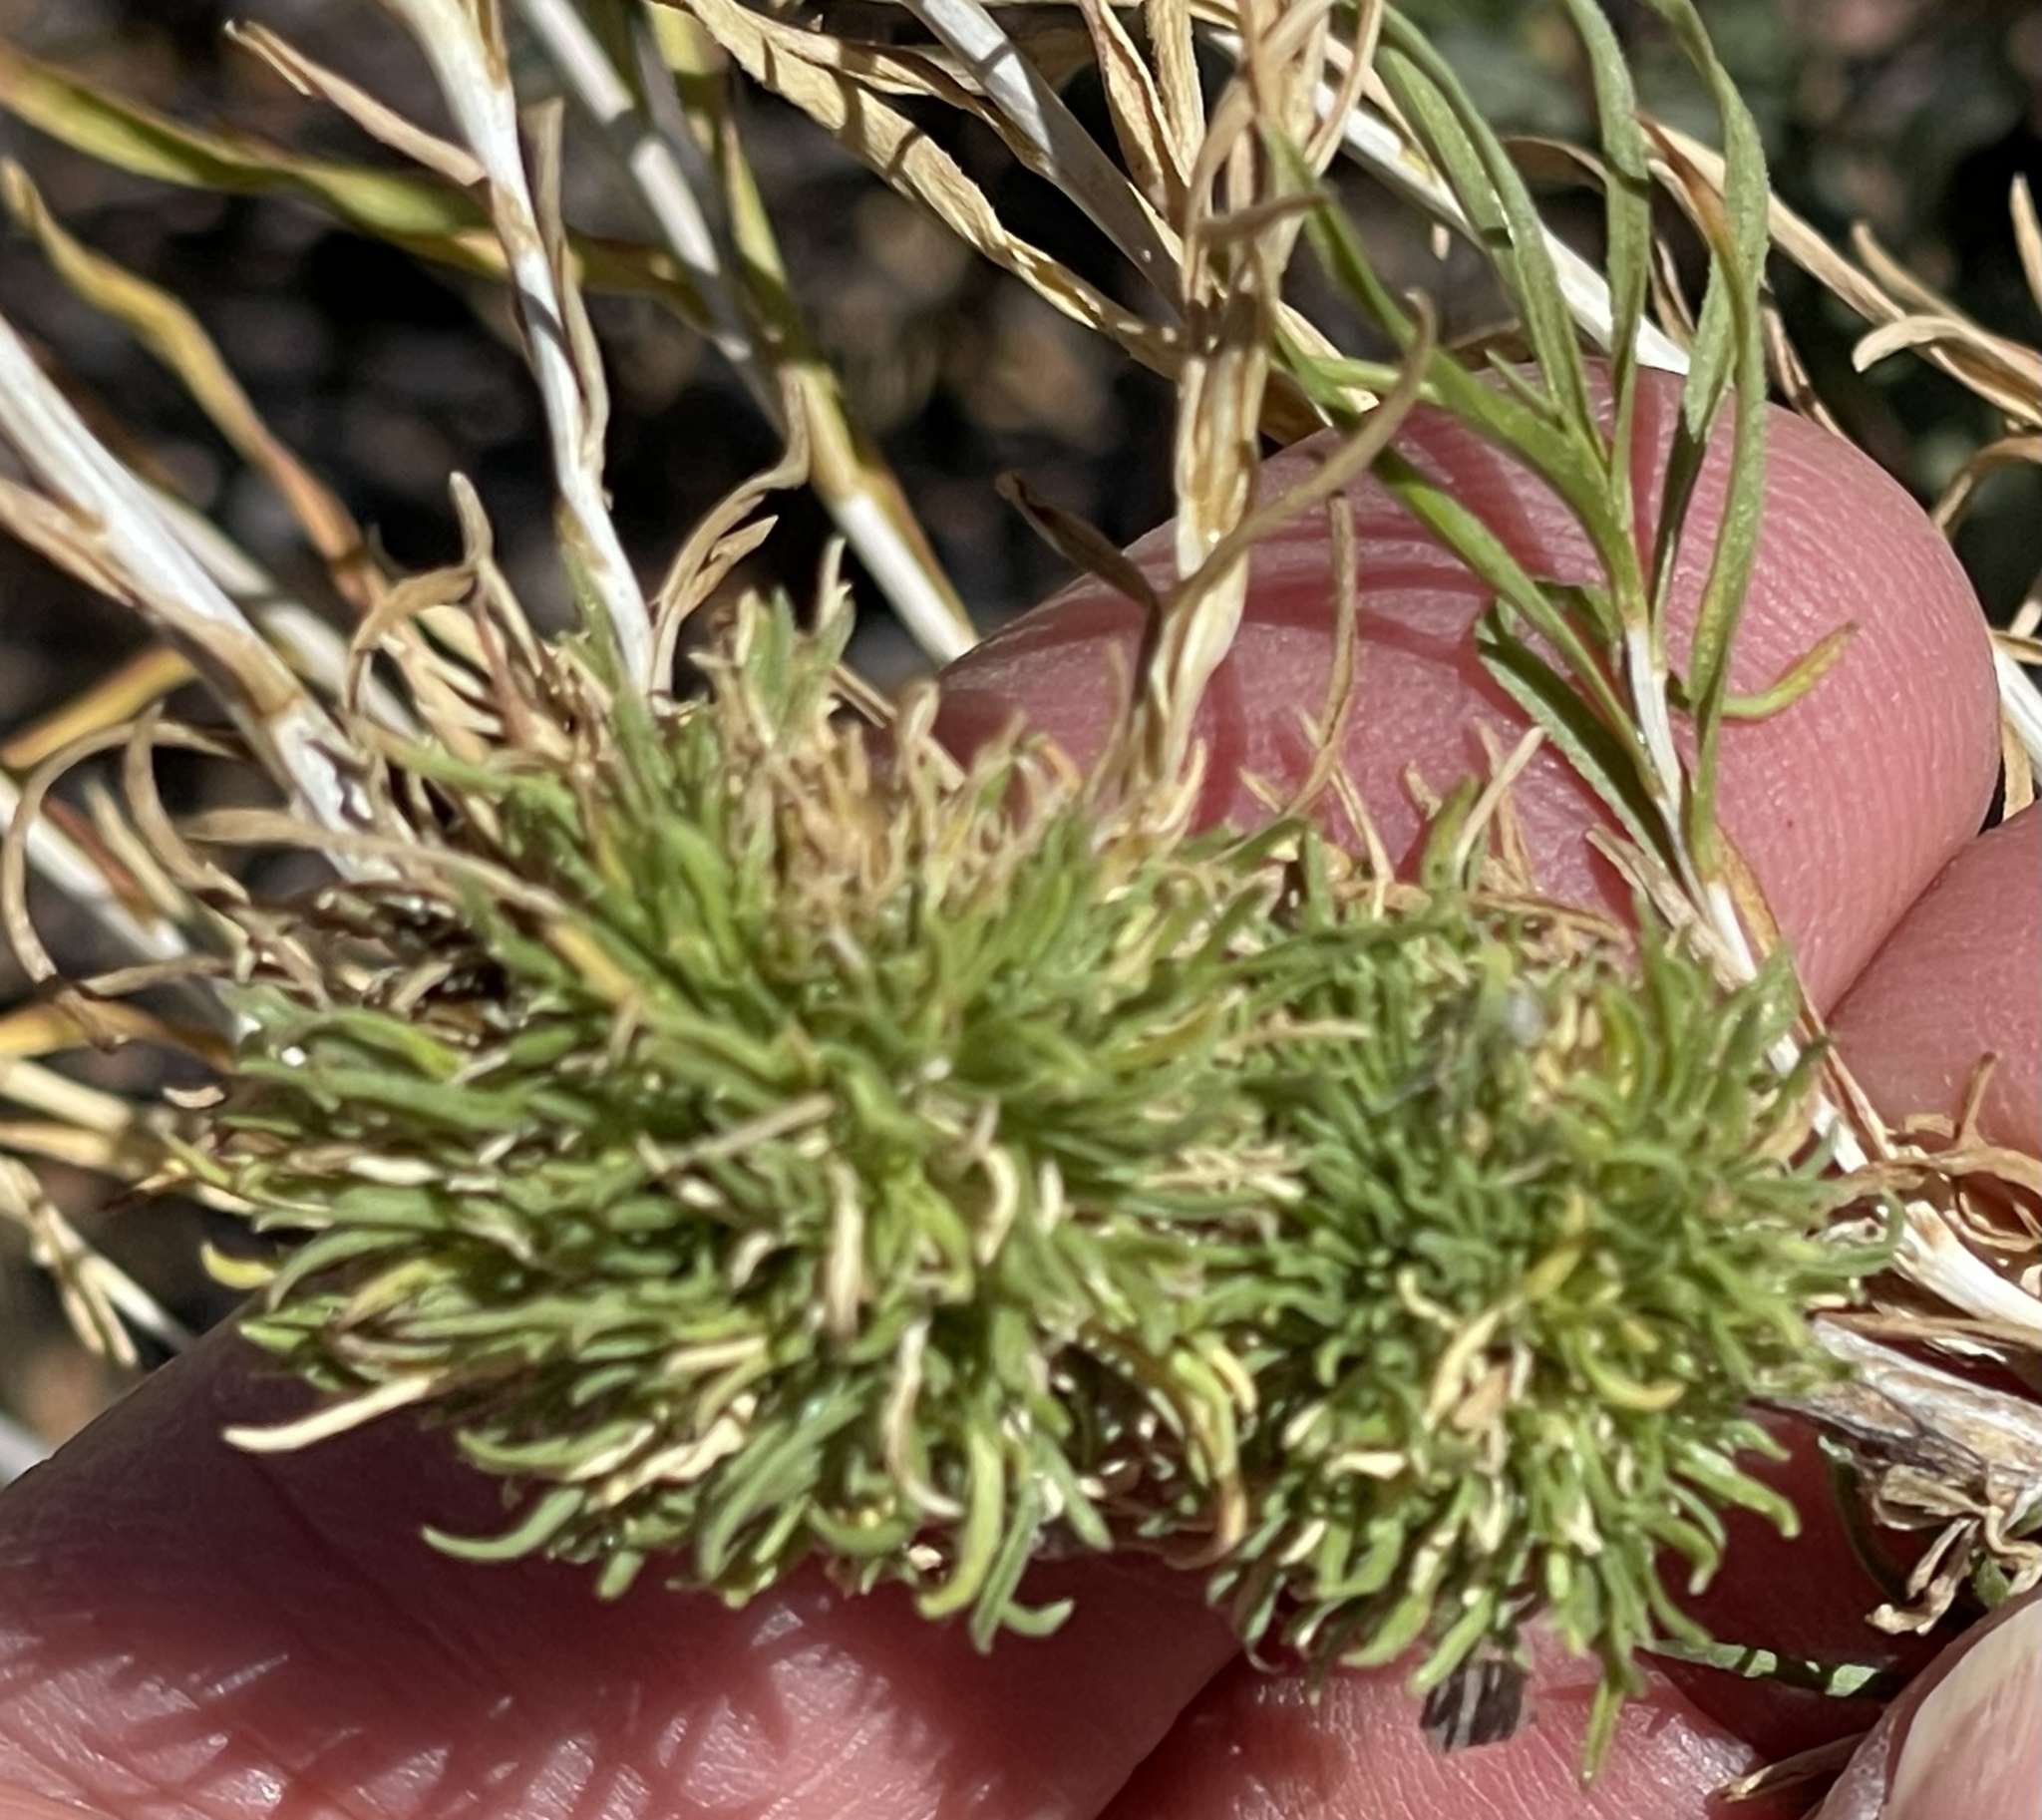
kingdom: Animalia
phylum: Arthropoda
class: Insecta
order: Diptera
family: Tephritidae
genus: Aciurina
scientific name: Aciurina ferruginea
